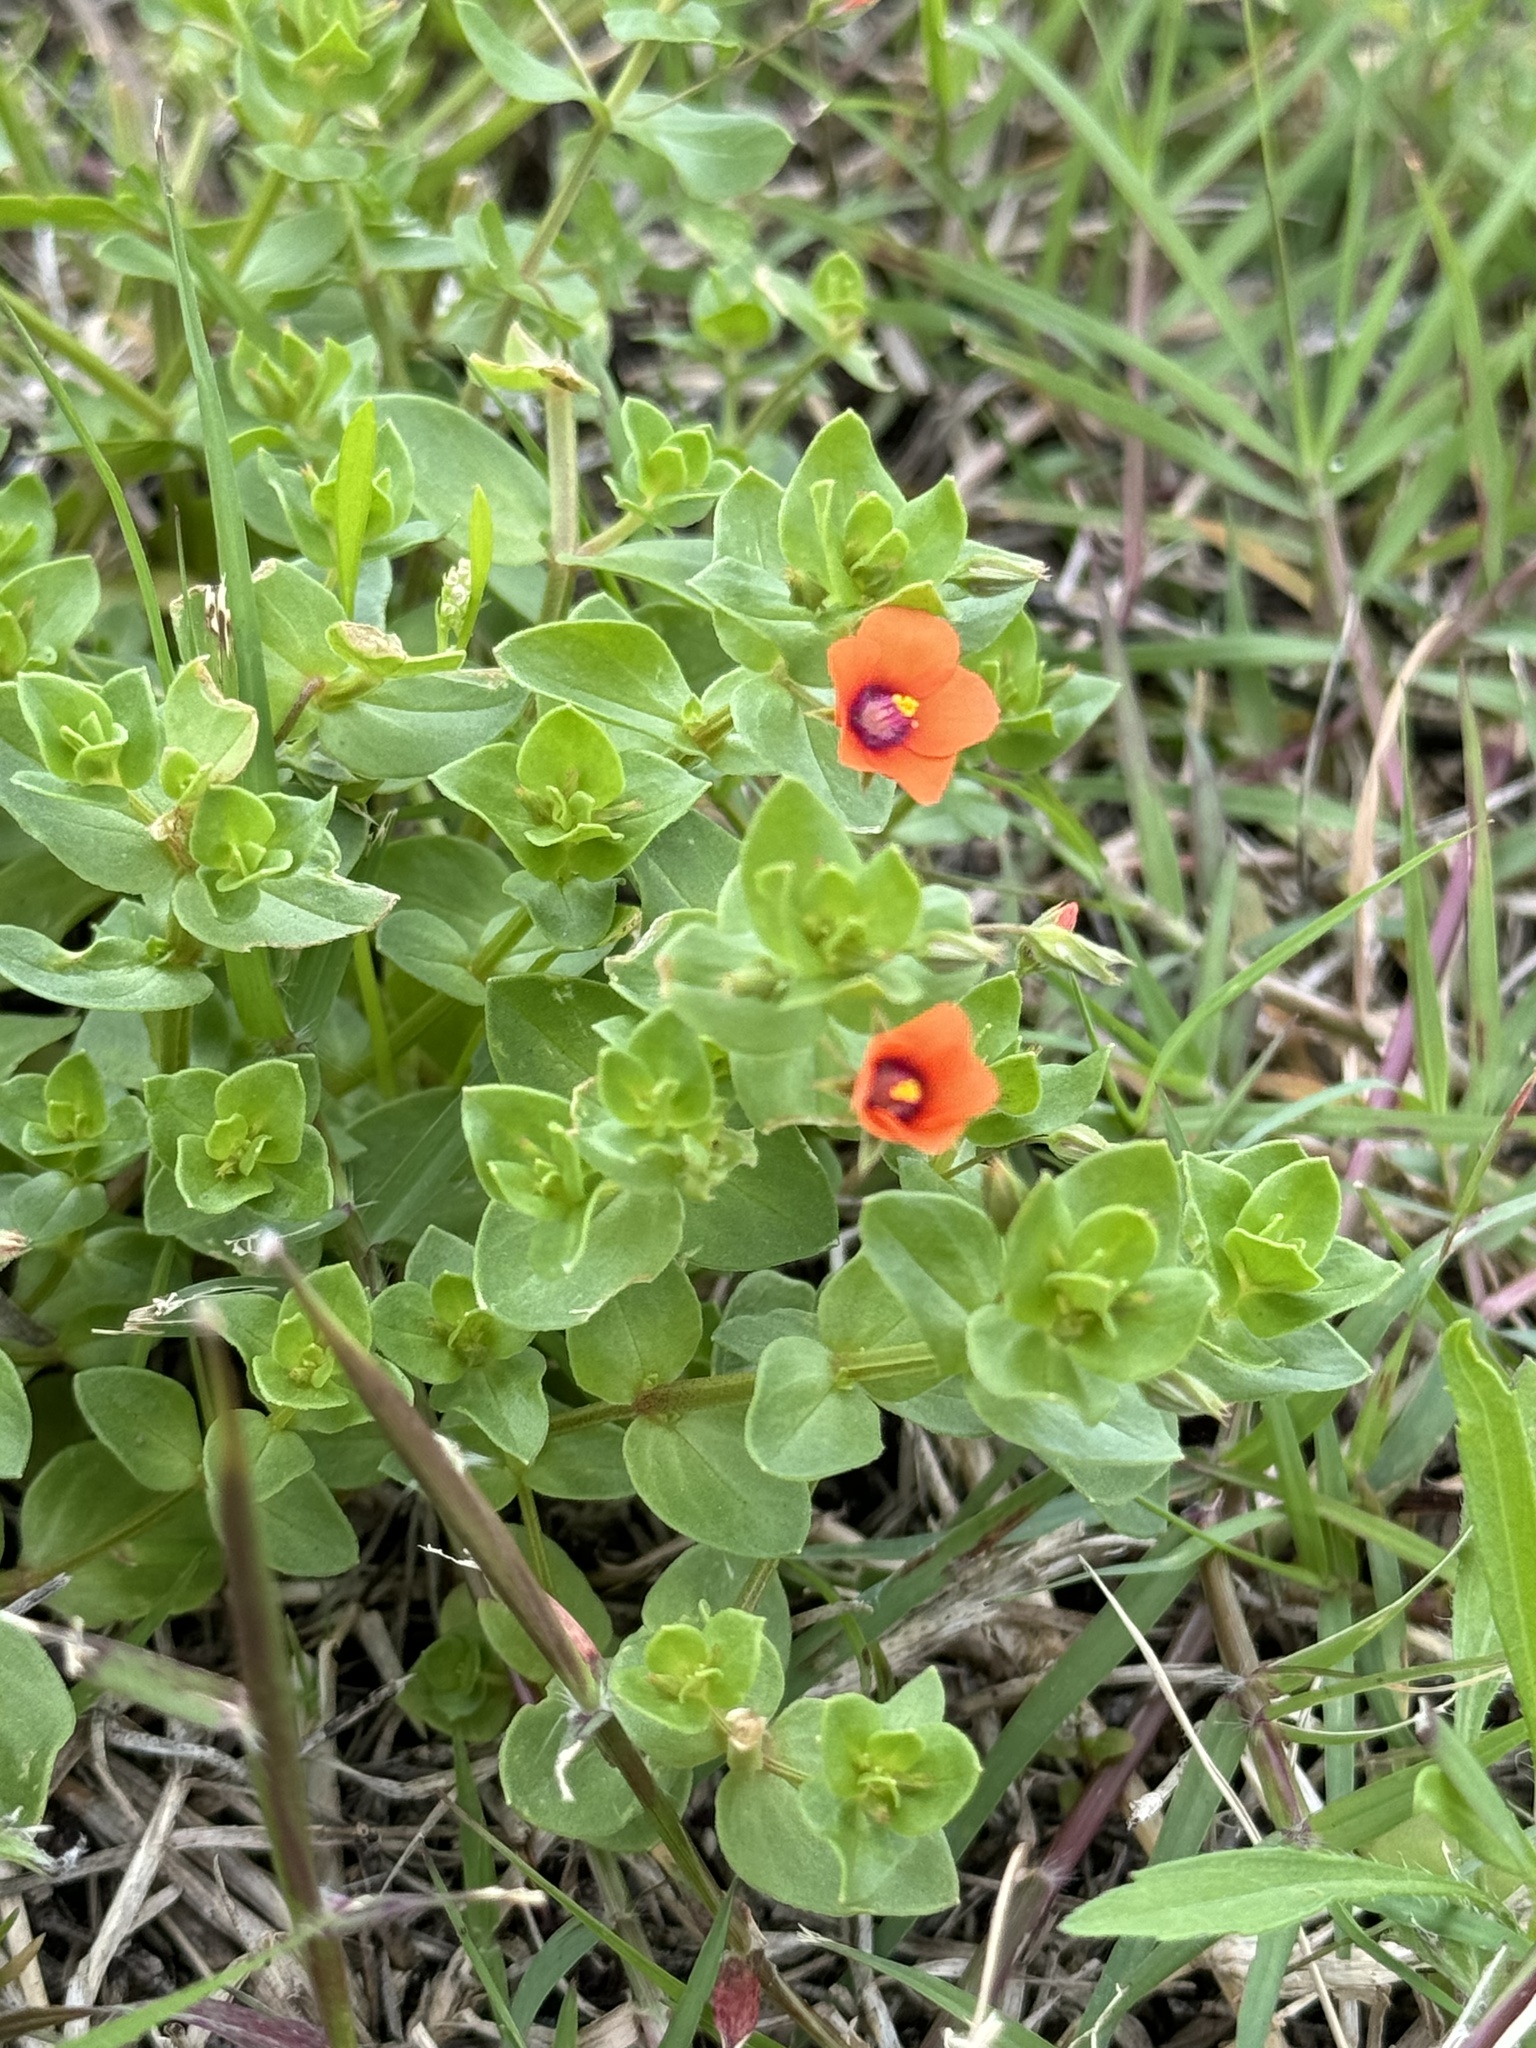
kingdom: Plantae
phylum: Tracheophyta
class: Magnoliopsida
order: Ericales
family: Primulaceae
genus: Lysimachia
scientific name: Lysimachia arvensis
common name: Scarlet pimpernel
